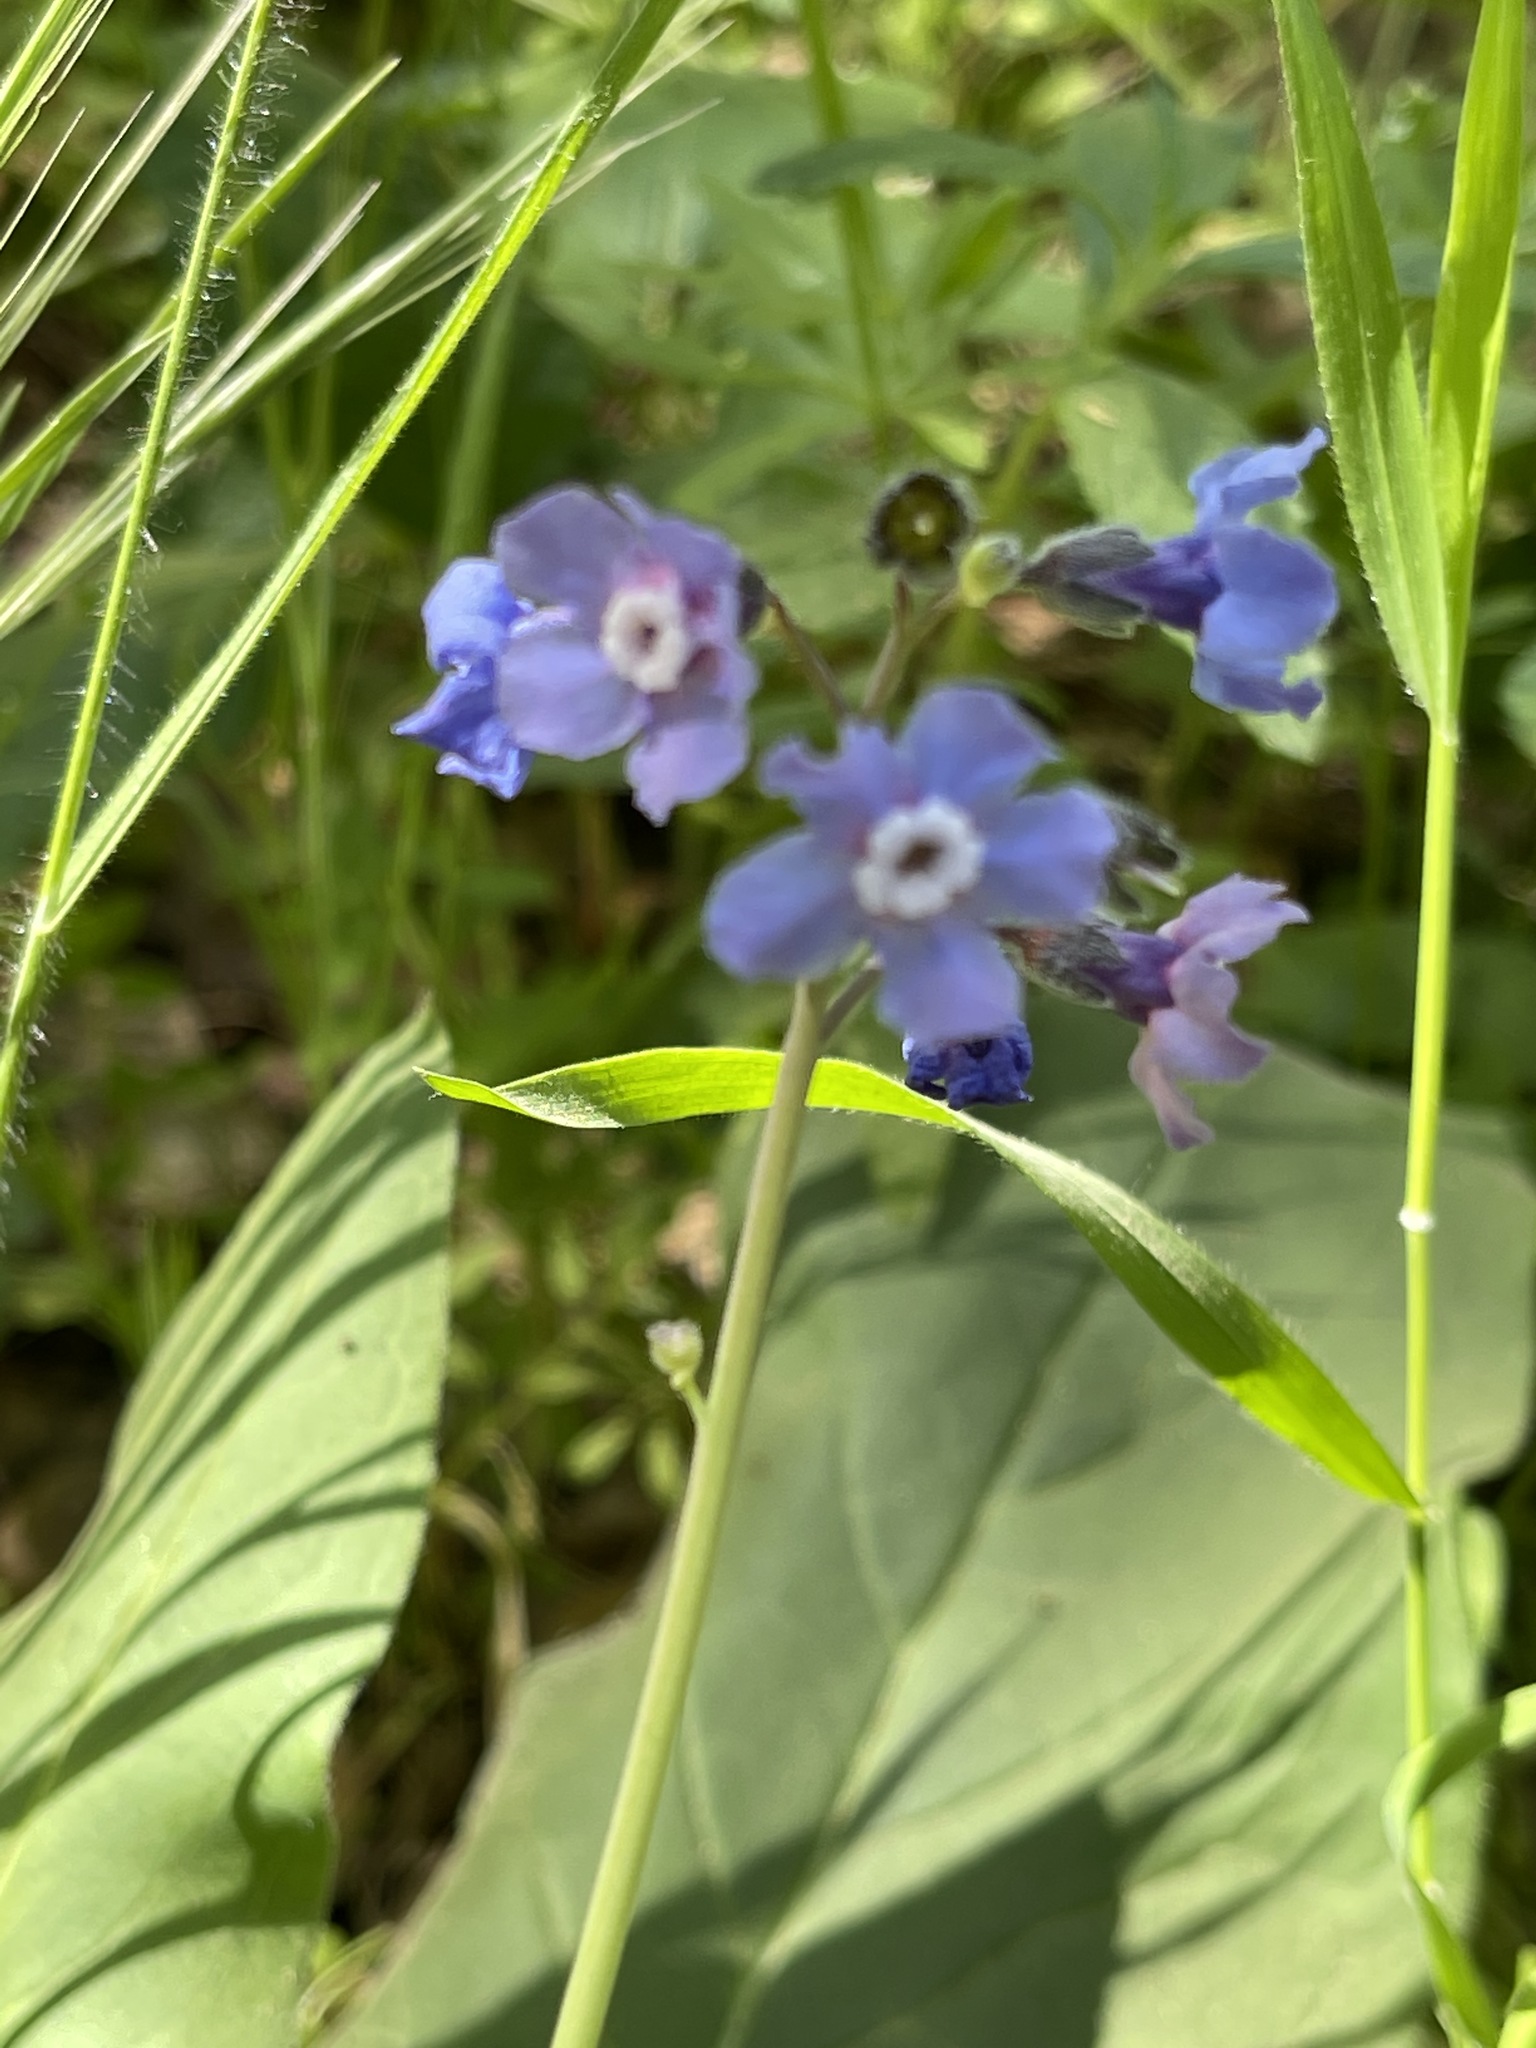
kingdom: Plantae
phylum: Tracheophyta
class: Magnoliopsida
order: Boraginales
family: Boraginaceae
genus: Adelinia
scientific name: Adelinia grande
